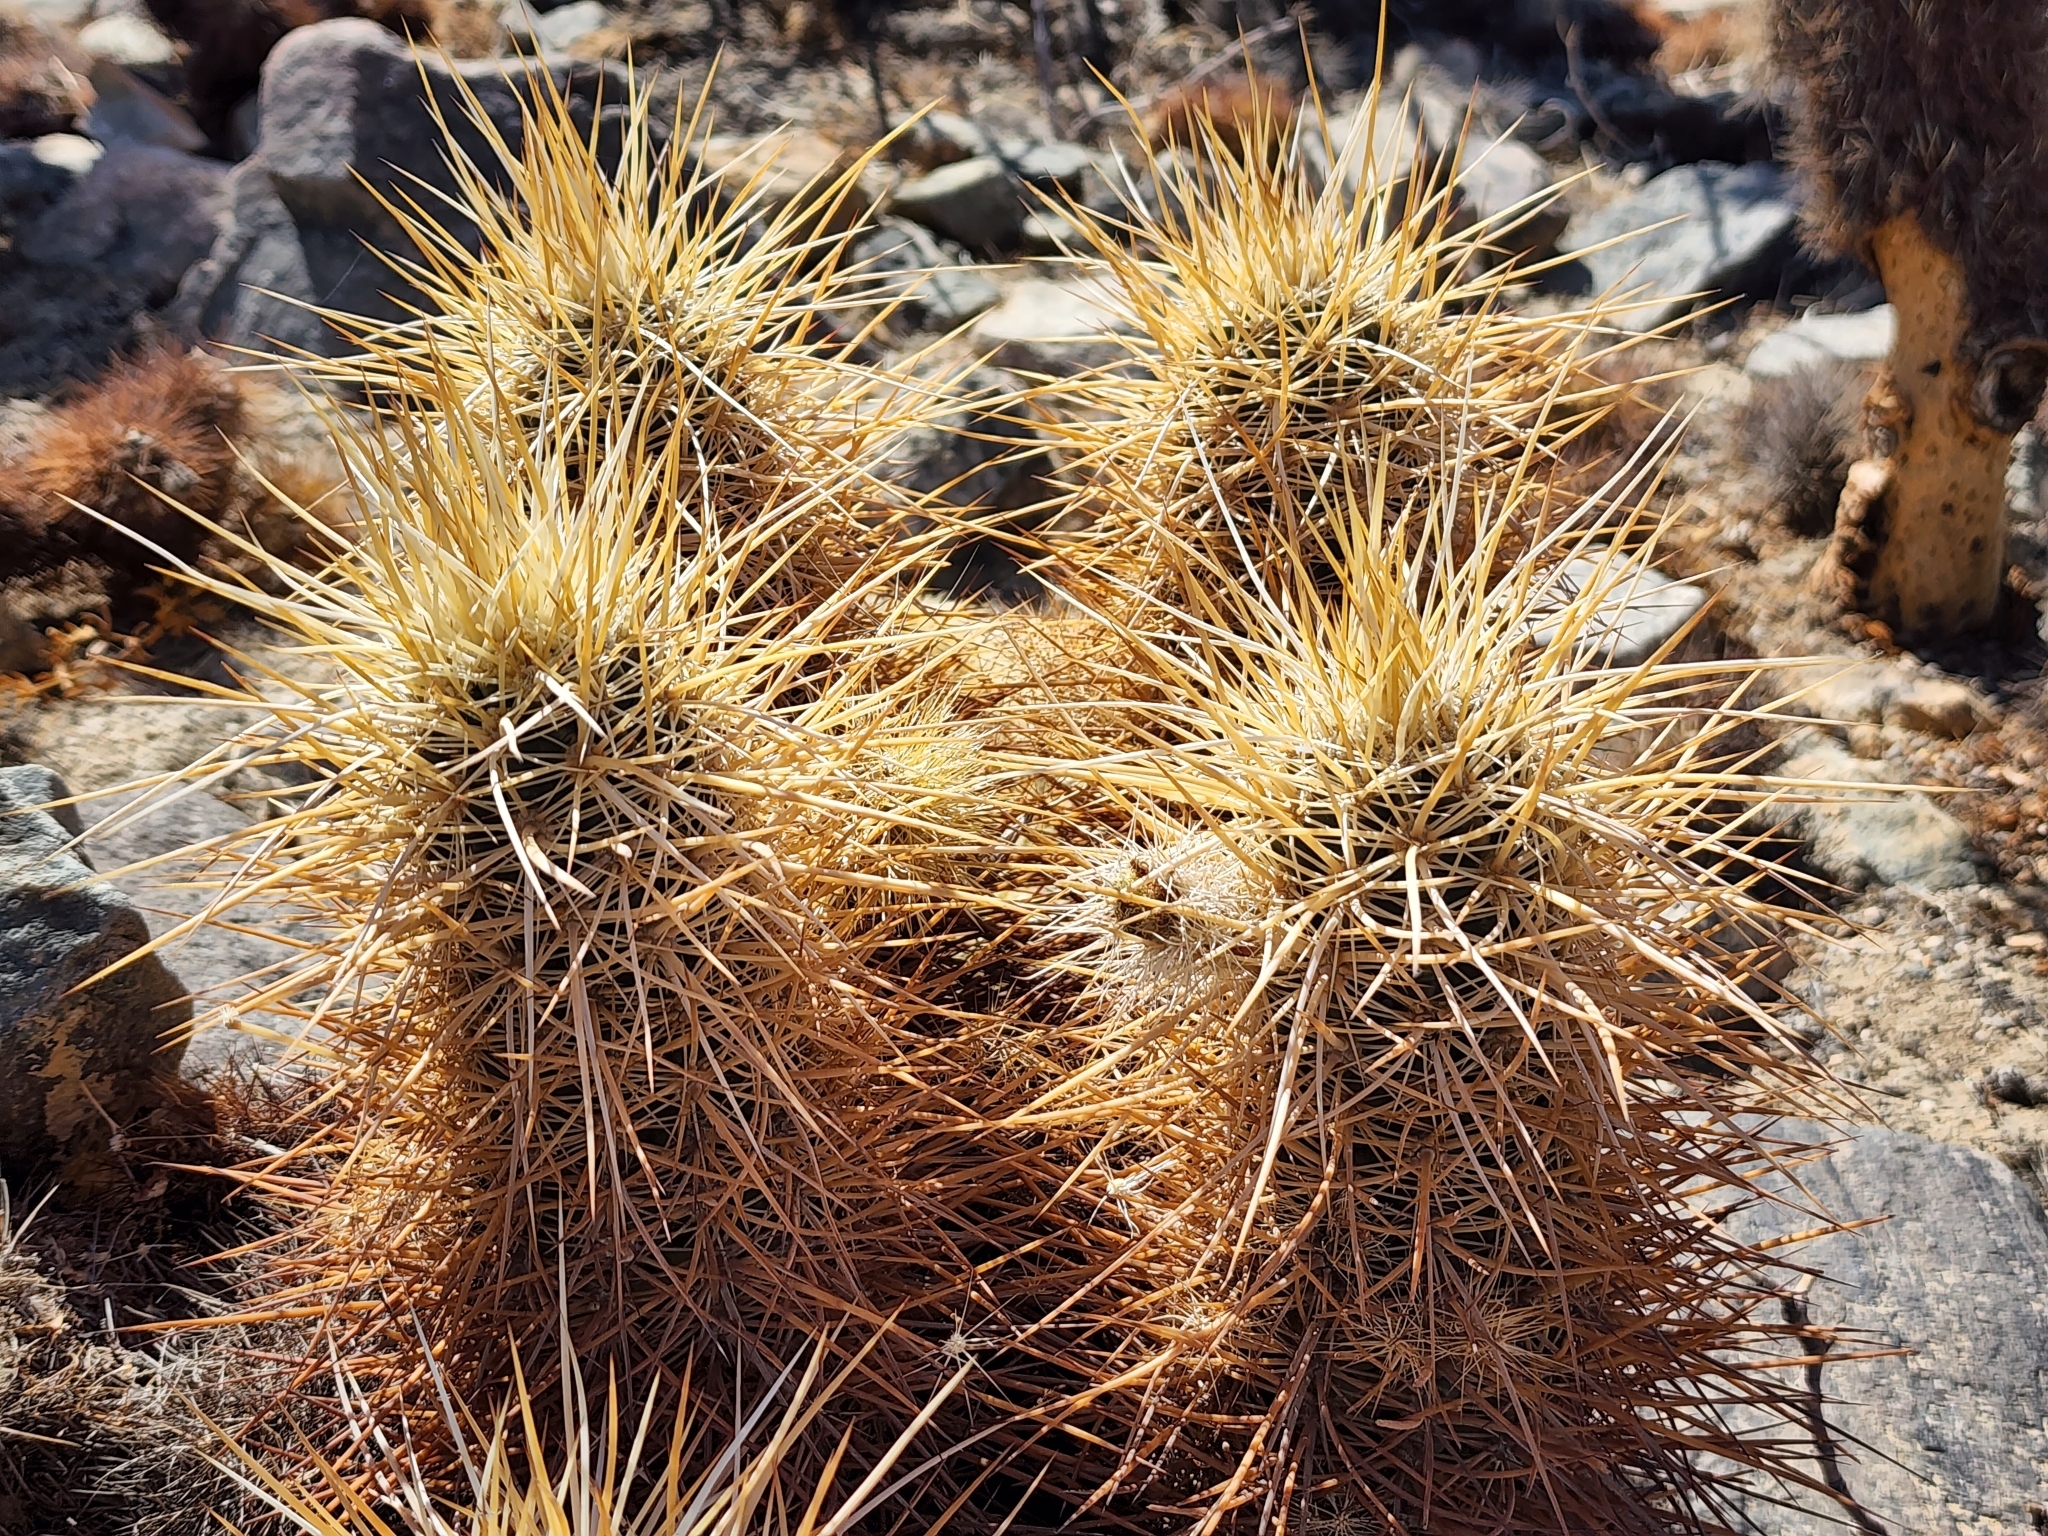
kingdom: Plantae
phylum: Tracheophyta
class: Magnoliopsida
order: Caryophyllales
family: Cactaceae
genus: Echinocereus
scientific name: Echinocereus engelmannii
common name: Engelmann's hedgehog cactus
